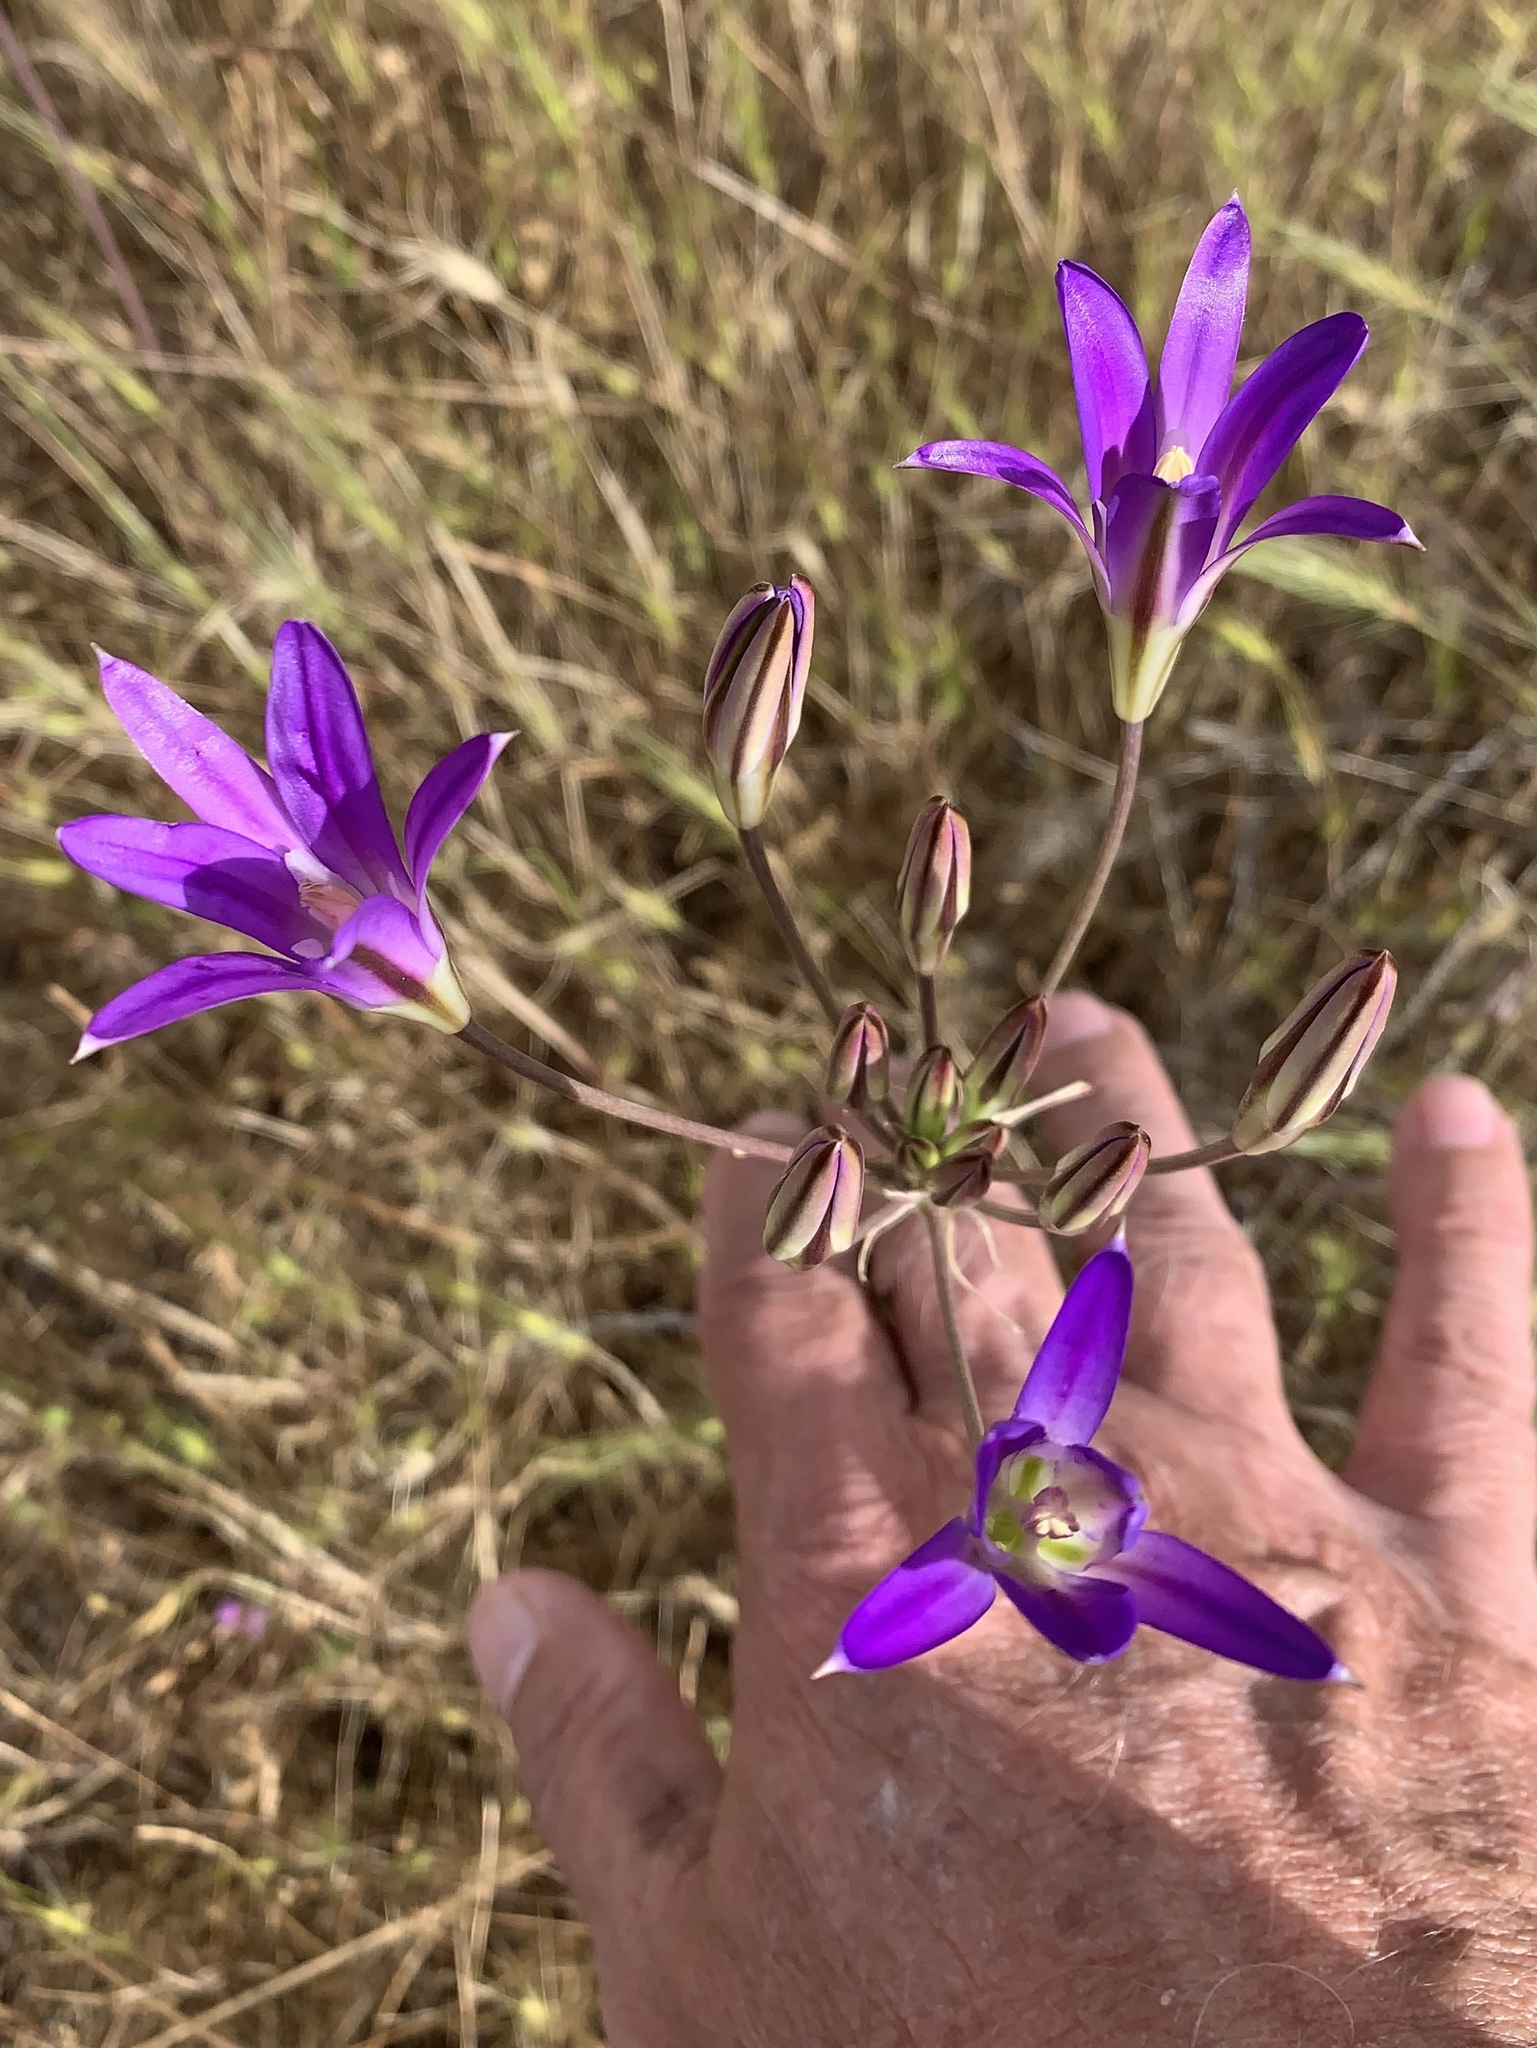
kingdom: Plantae
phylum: Tracheophyta
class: Liliopsida
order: Asparagales
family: Asparagaceae
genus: Brodiaea
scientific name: Brodiaea elegans
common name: Elegant cluster-lily
